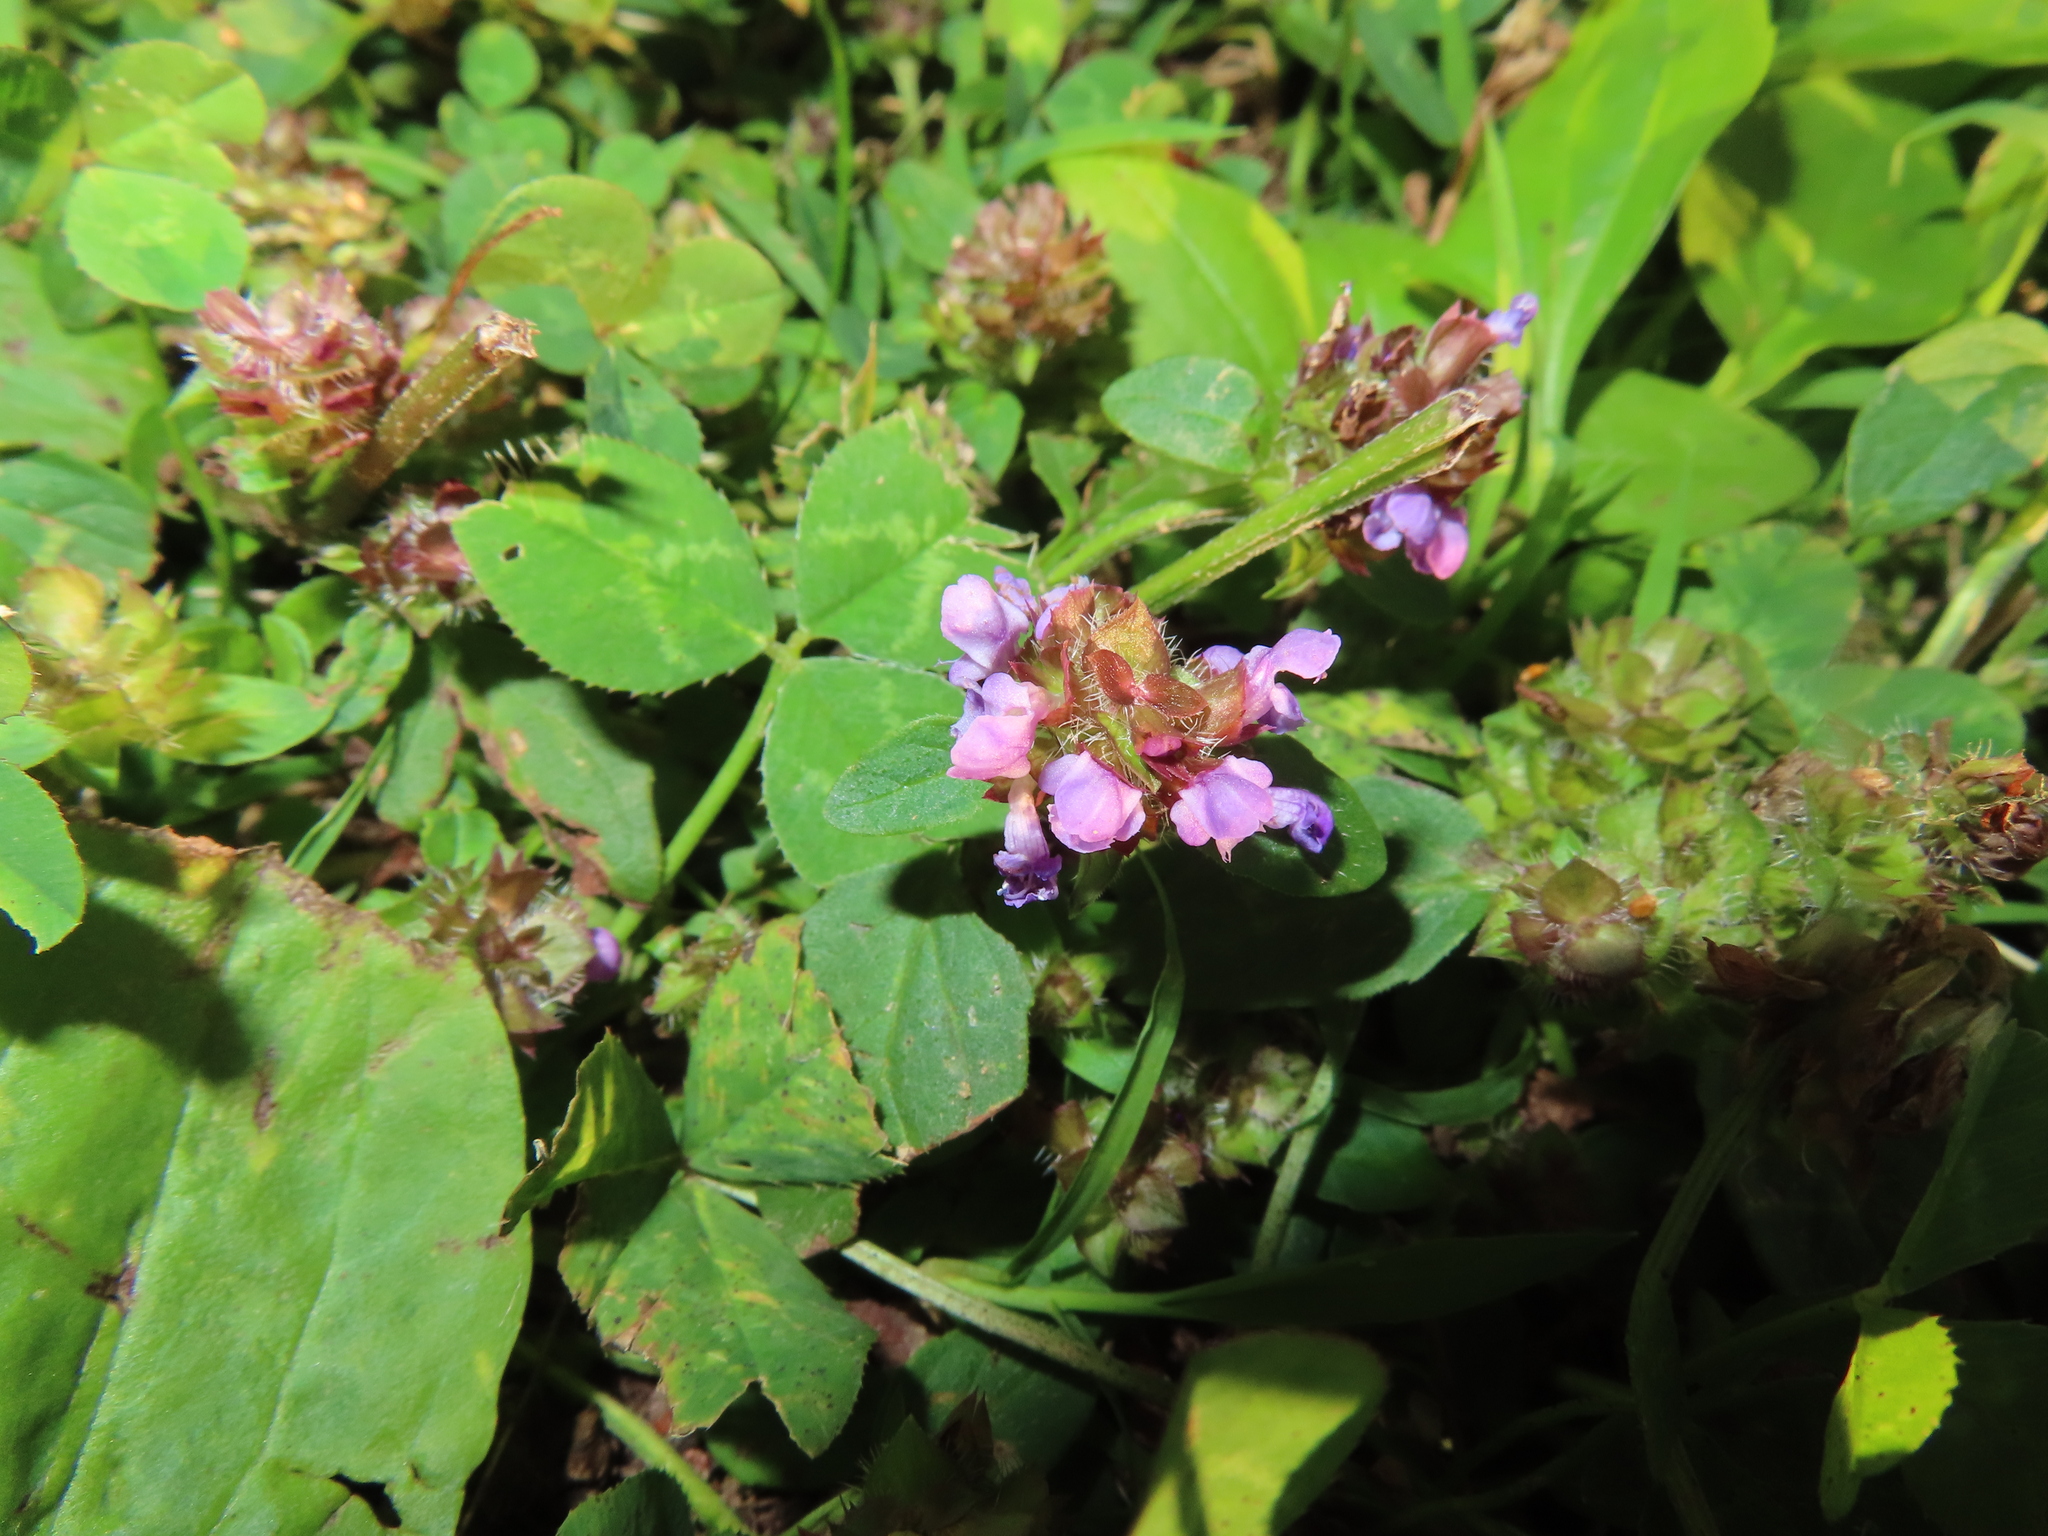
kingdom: Plantae
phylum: Tracheophyta
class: Magnoliopsida
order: Lamiales
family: Lamiaceae
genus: Prunella
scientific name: Prunella vulgaris
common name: Heal-all
